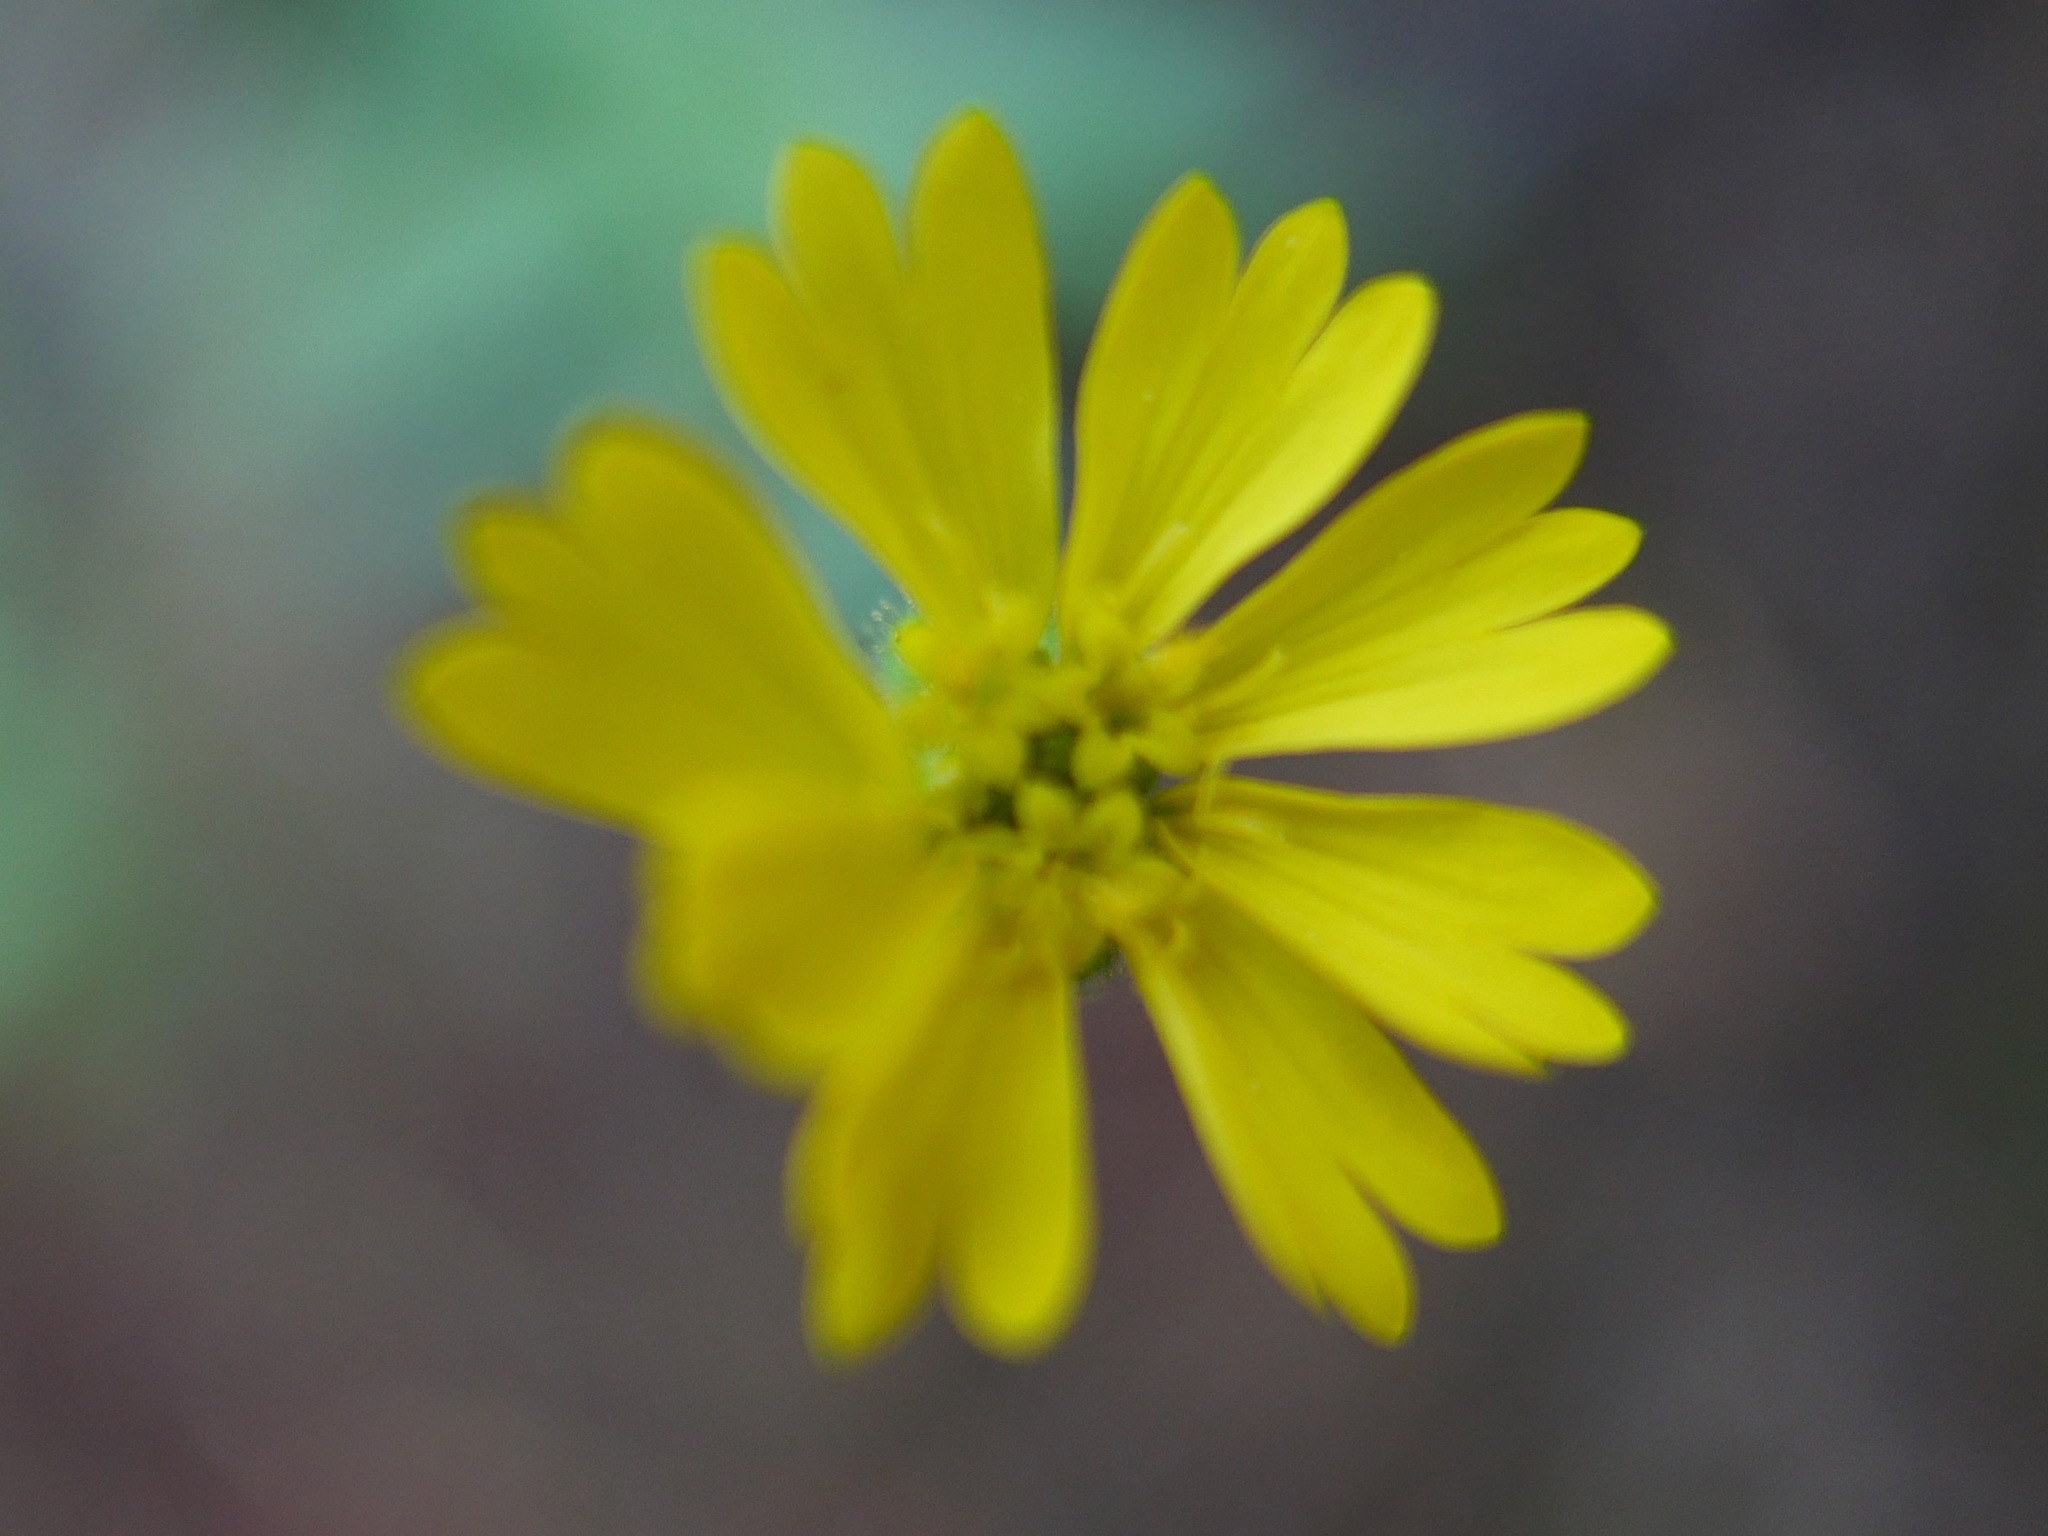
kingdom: Plantae
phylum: Tracheophyta
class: Magnoliopsida
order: Asterales
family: Asteraceae
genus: Anisocarpus
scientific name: Anisocarpus madioides
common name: Woodland madia
